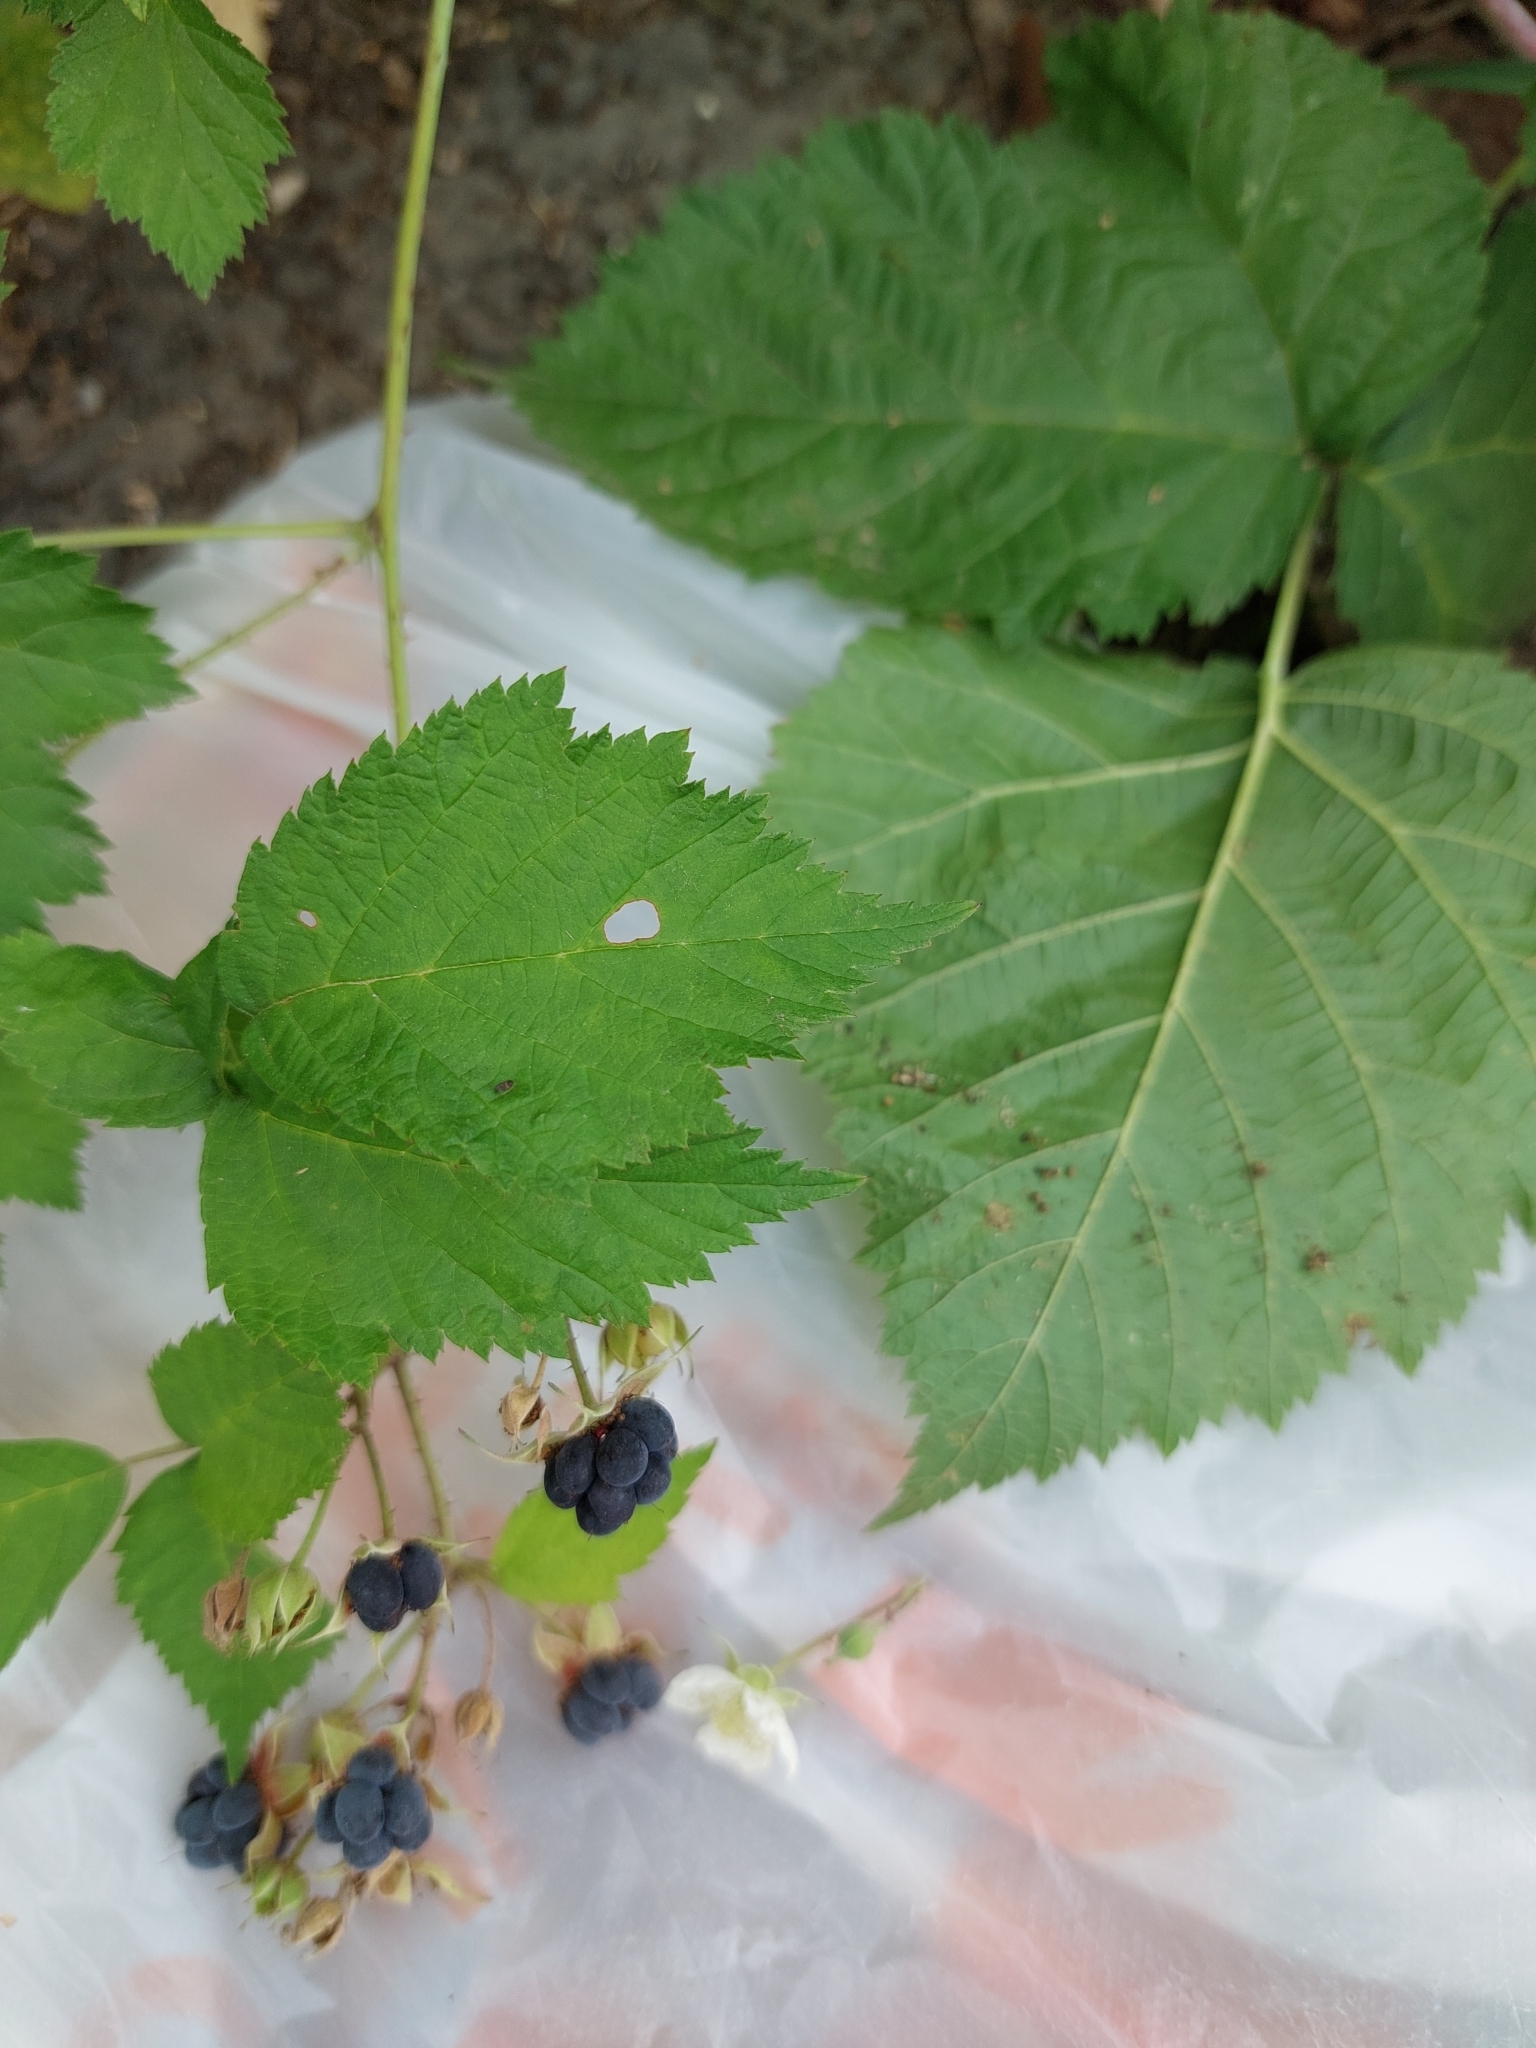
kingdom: Plantae
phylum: Tracheophyta
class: Magnoliopsida
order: Rosales
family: Rosaceae
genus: Rubus
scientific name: Rubus caesius
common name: Dewberry
